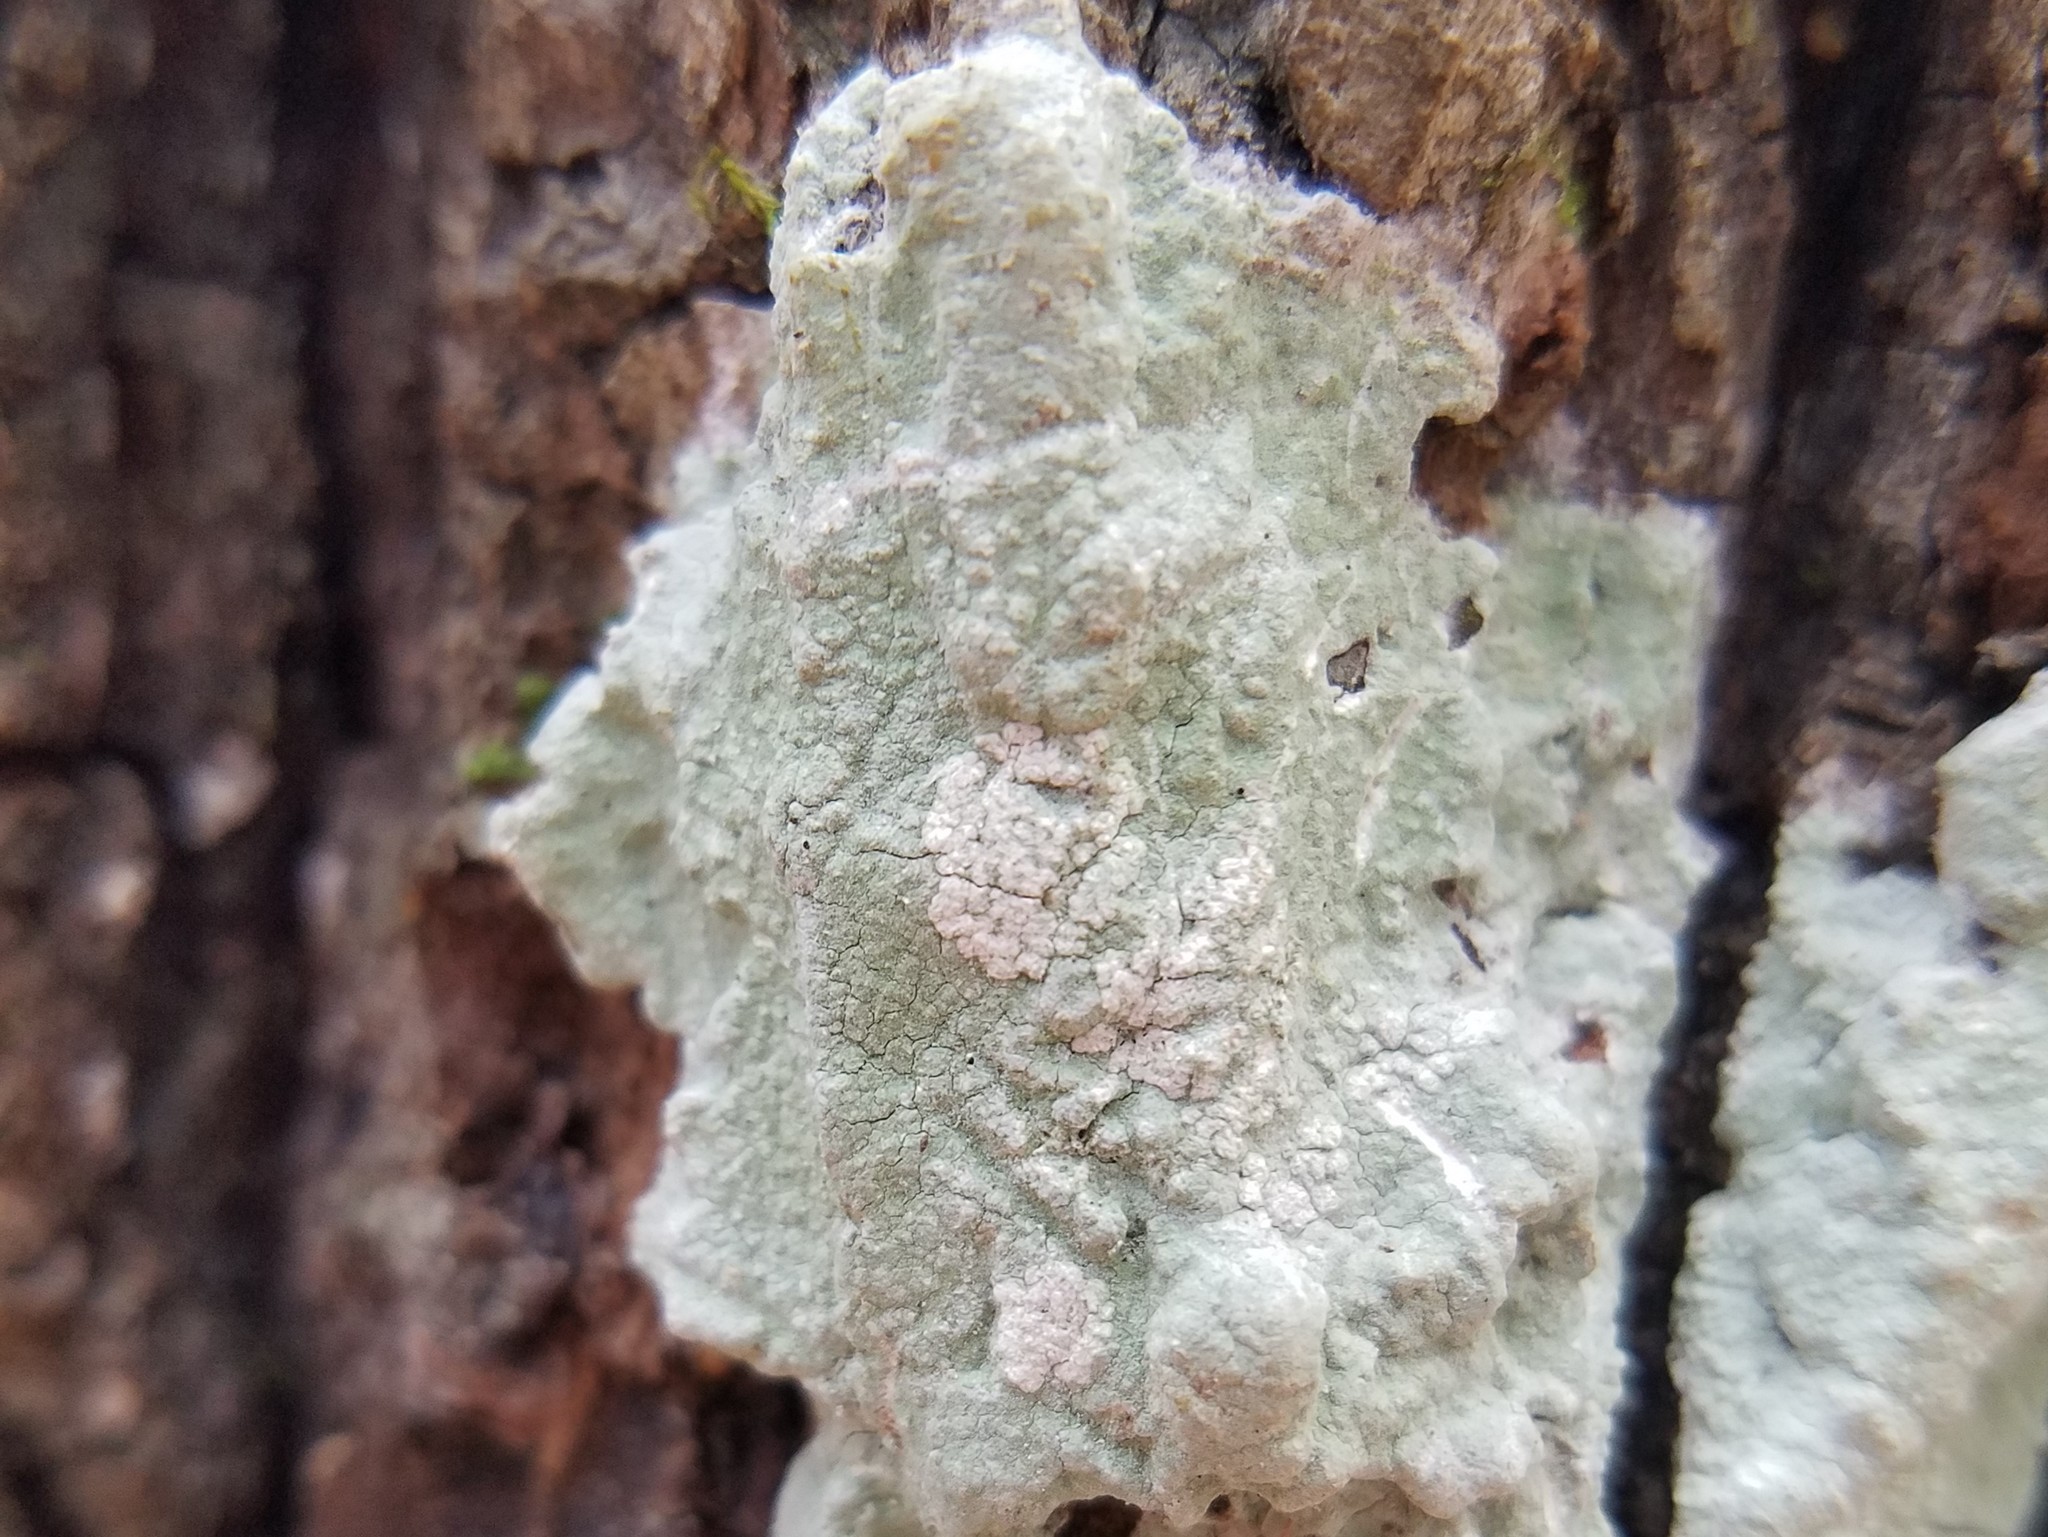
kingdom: Fungi
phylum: Ascomycota
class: Lecanoromycetes
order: Ostropales
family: Phlyctidaceae
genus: Phlyctis
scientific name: Phlyctis boliviensis
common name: Bark whitewash
